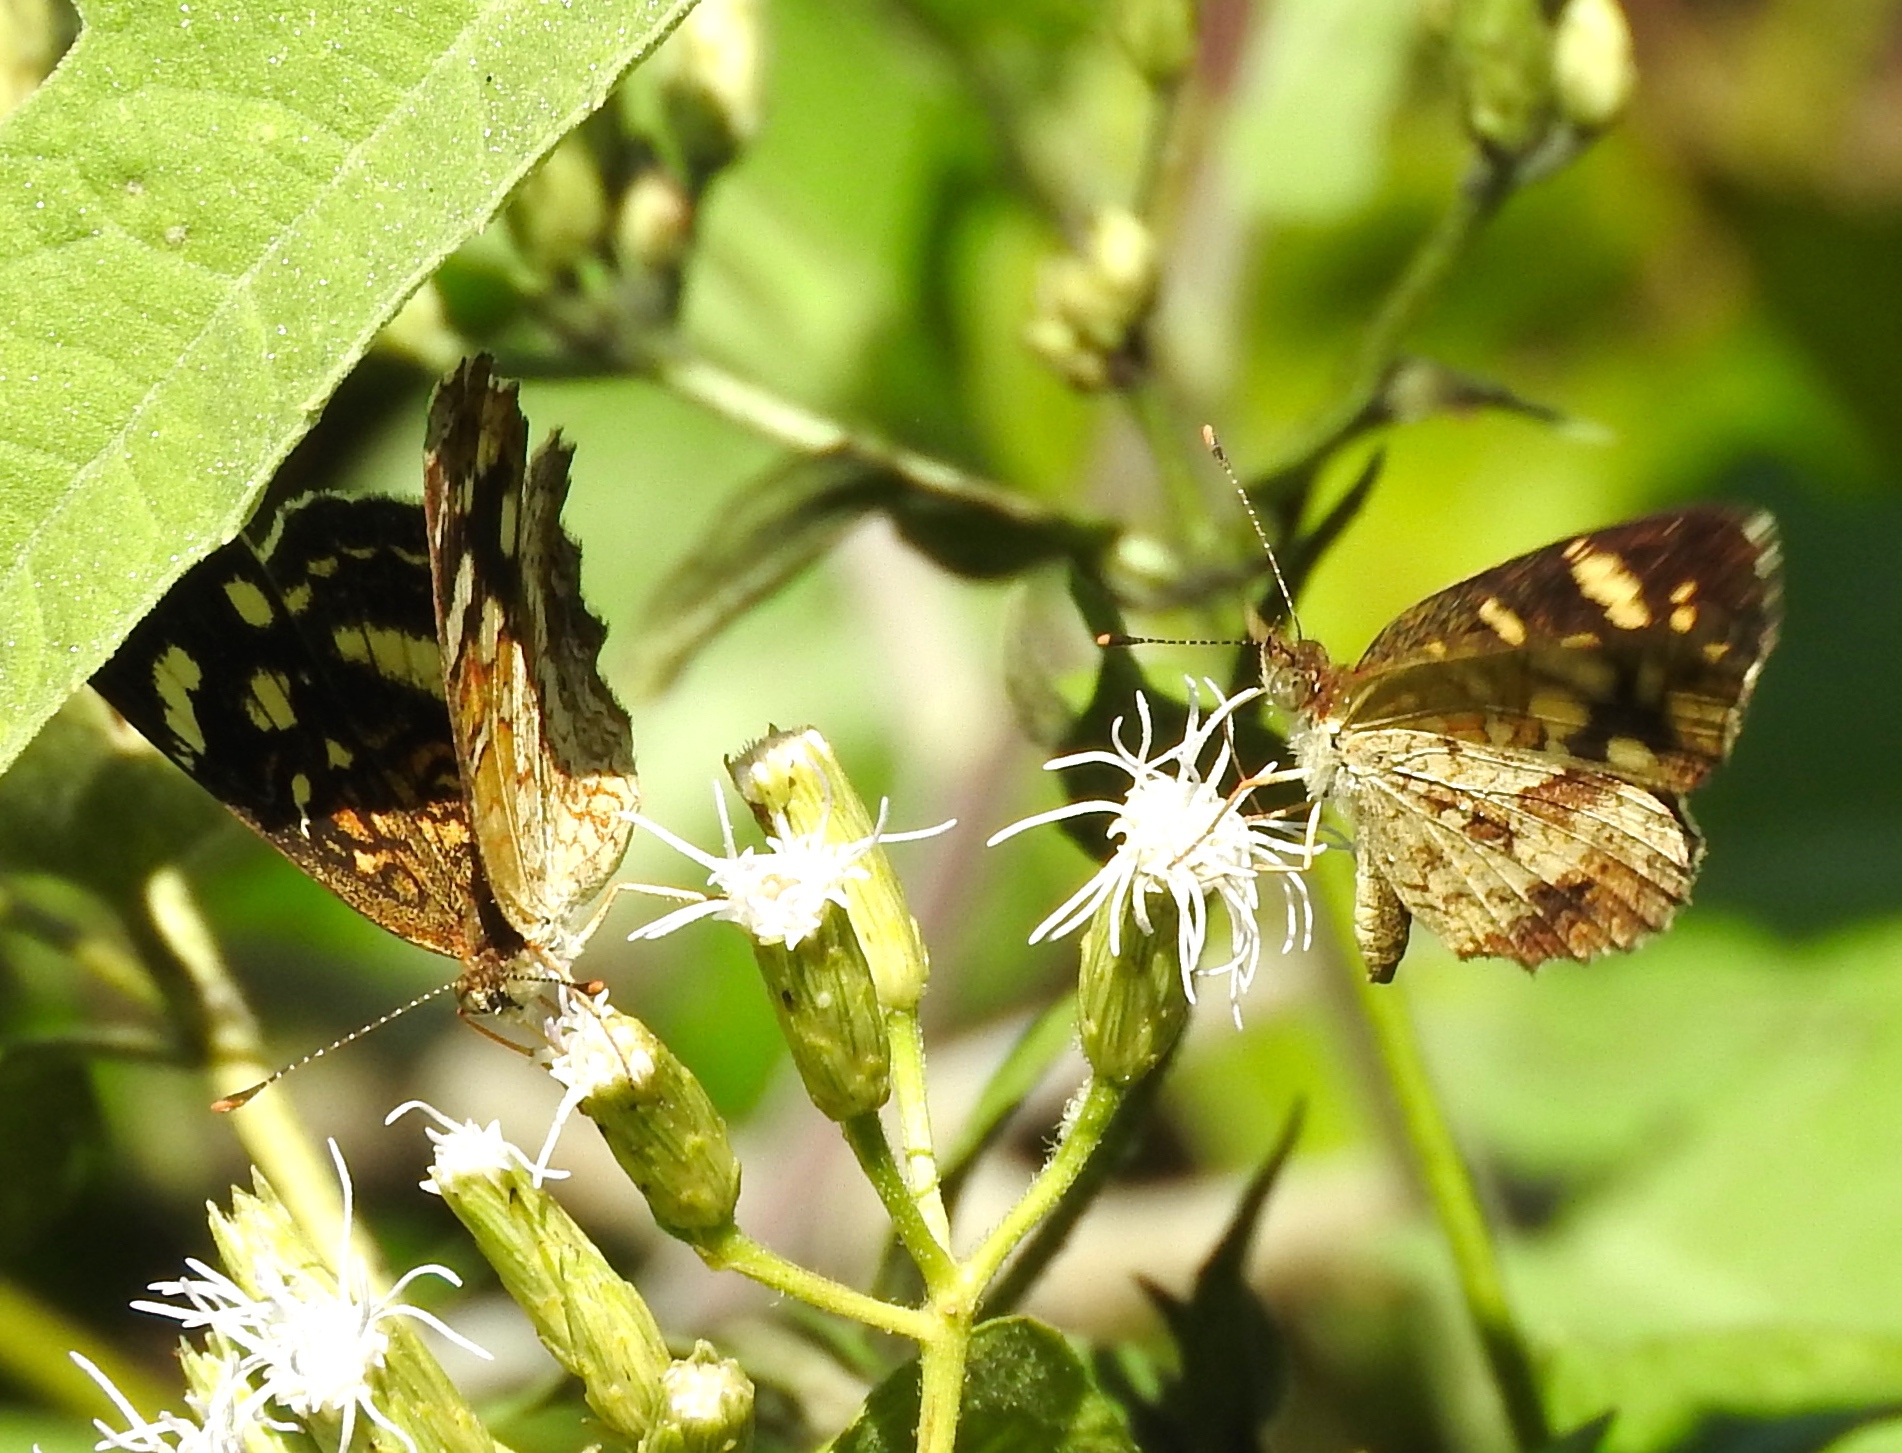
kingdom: Animalia
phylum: Arthropoda
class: Insecta
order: Lepidoptera
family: Nymphalidae
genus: Anthanassa
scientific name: Anthanassa
